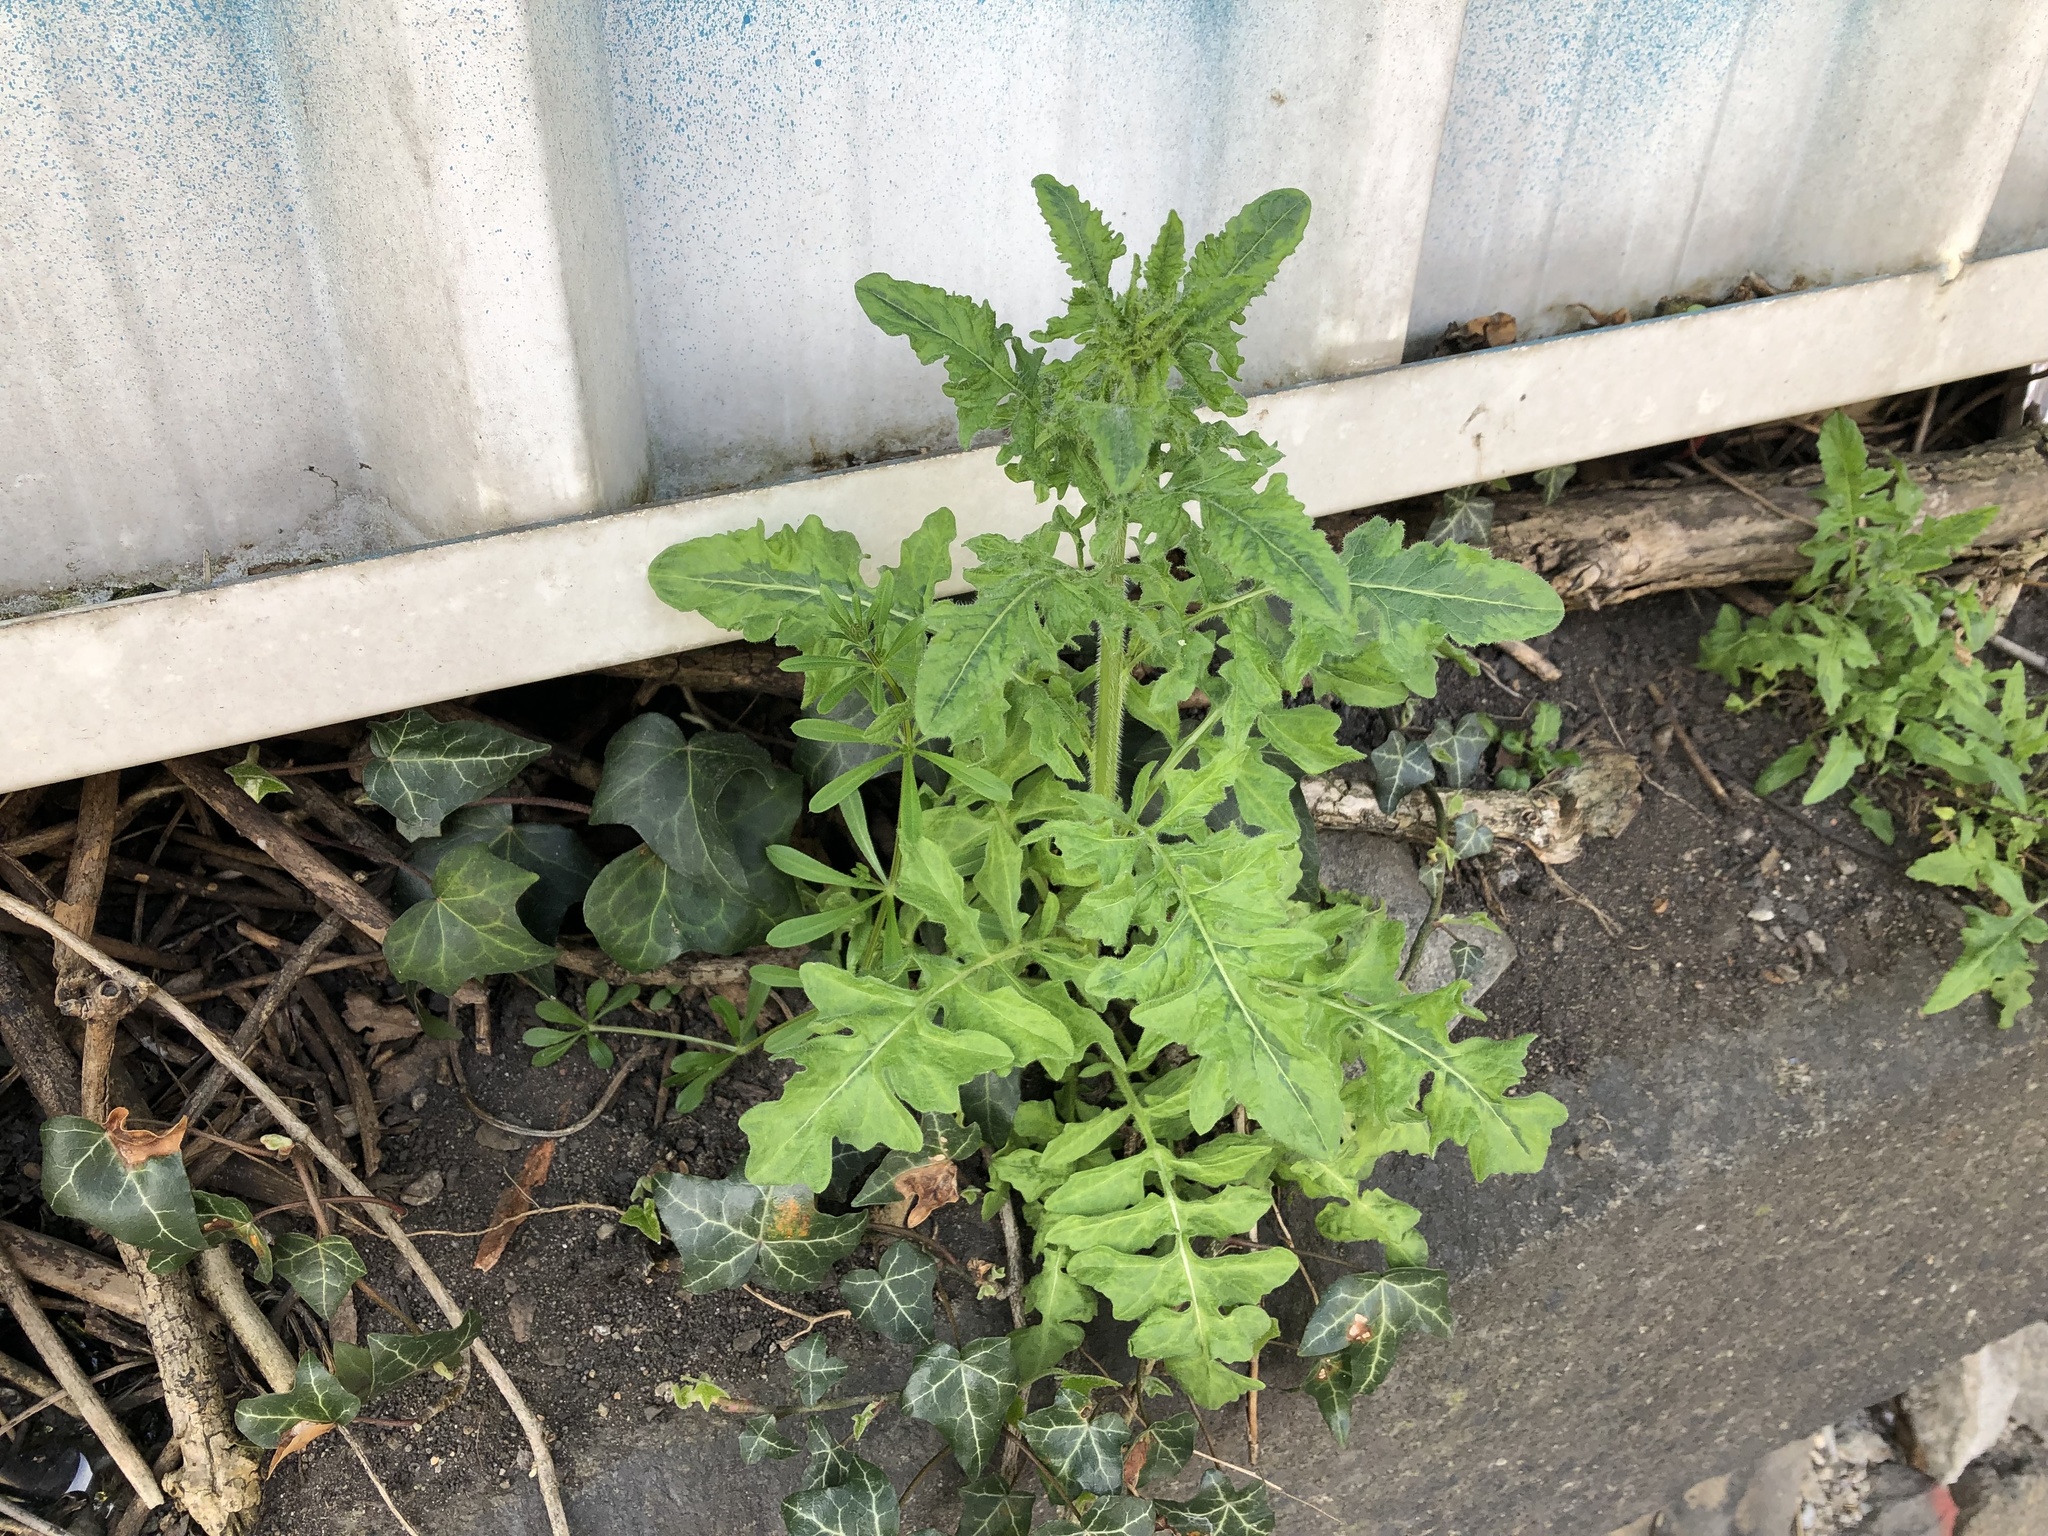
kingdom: Plantae
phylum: Tracheophyta
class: Magnoliopsida
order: Brassicales
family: Brassicaceae
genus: Sisymbrium
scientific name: Sisymbrium loeselii
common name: False london-rocket
